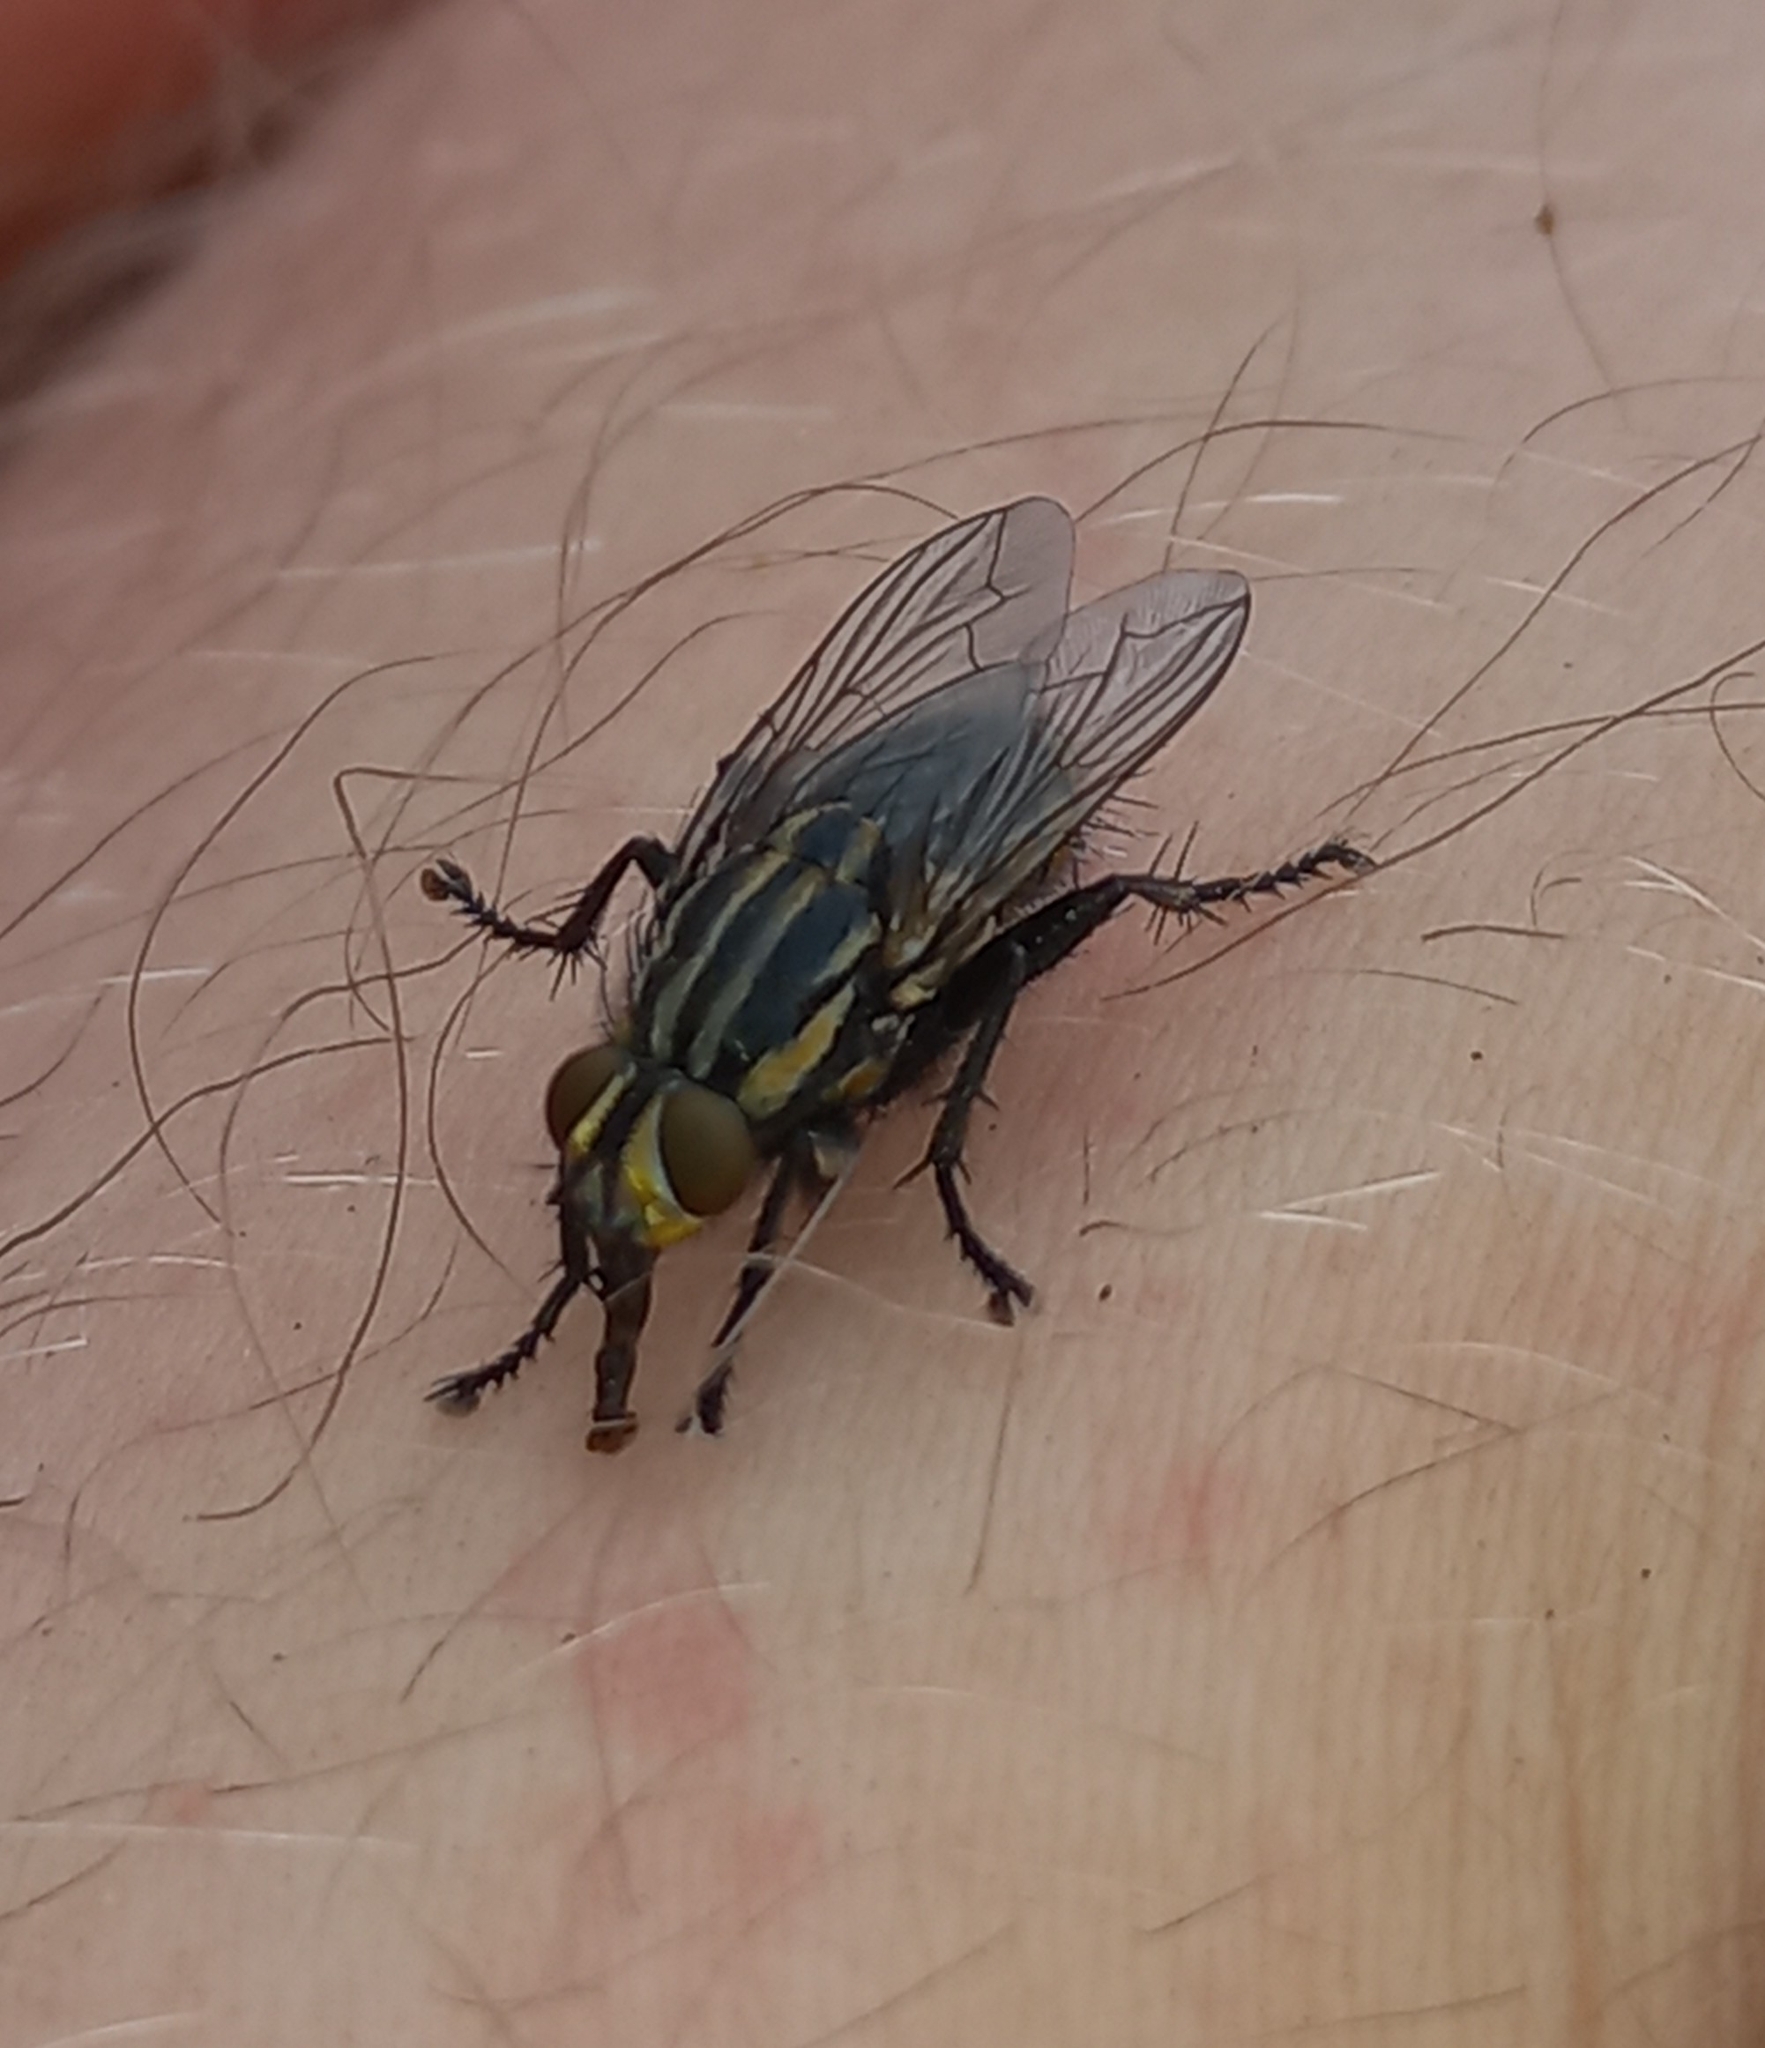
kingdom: Animalia
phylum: Arthropoda
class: Insecta
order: Diptera
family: Sarcophagidae
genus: Oxysarcodexia
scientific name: Oxysarcodexia varia
